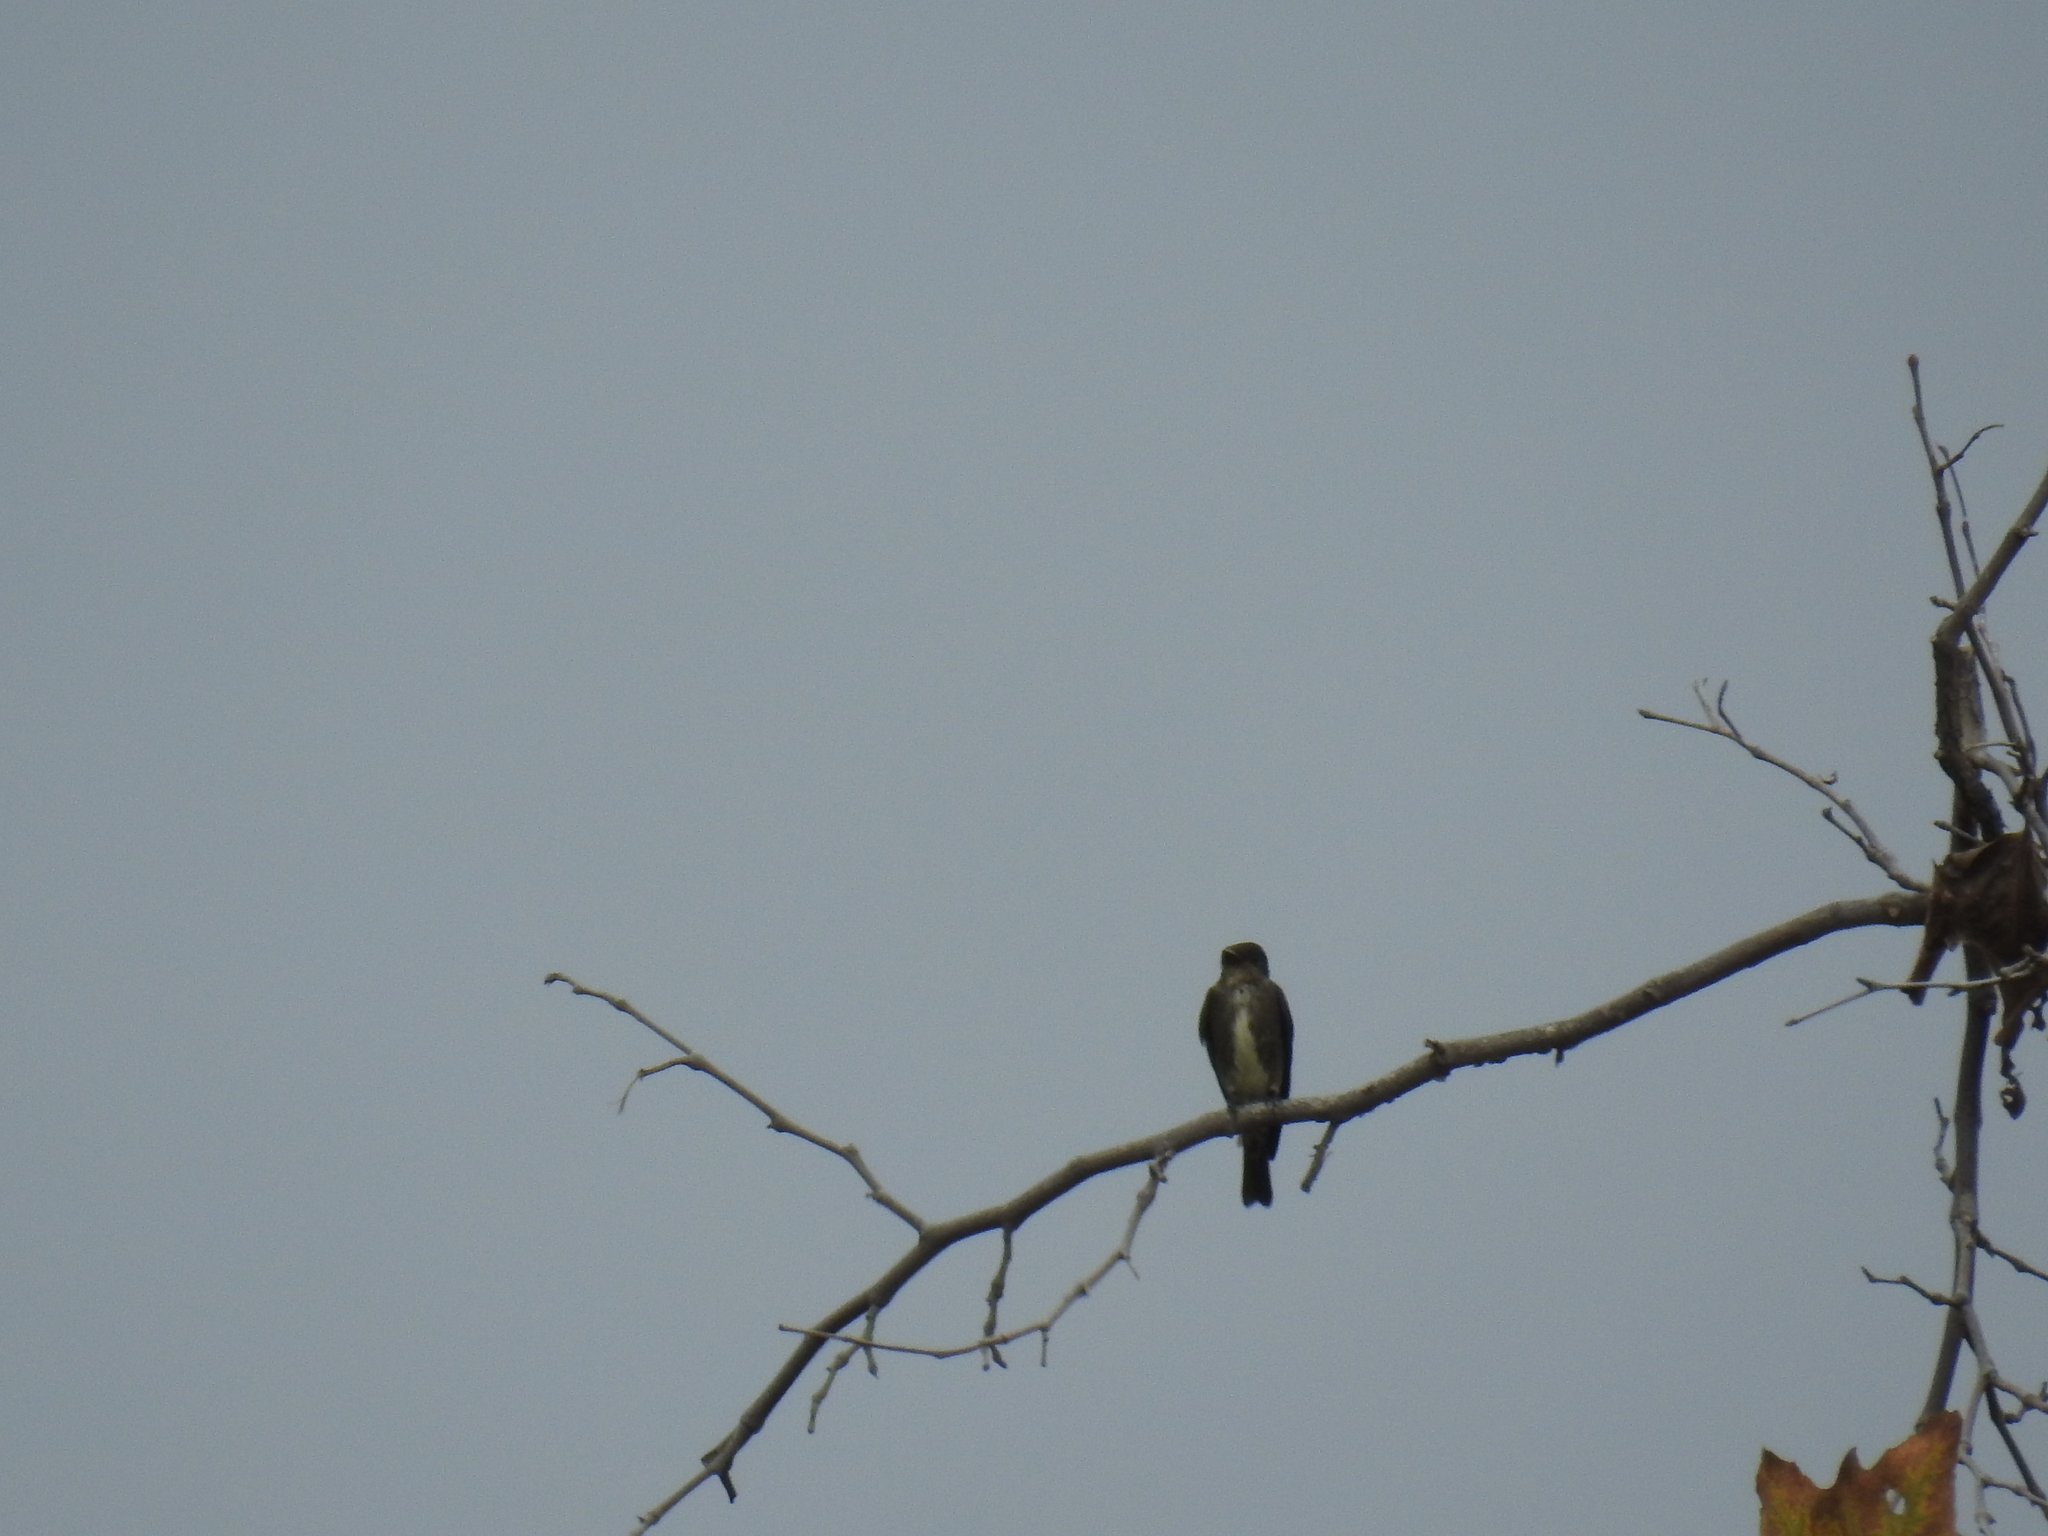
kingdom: Animalia
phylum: Chordata
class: Aves
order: Passeriformes
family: Tyrannidae
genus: Contopus
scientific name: Contopus cooperi
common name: Olive-sided flycatcher
